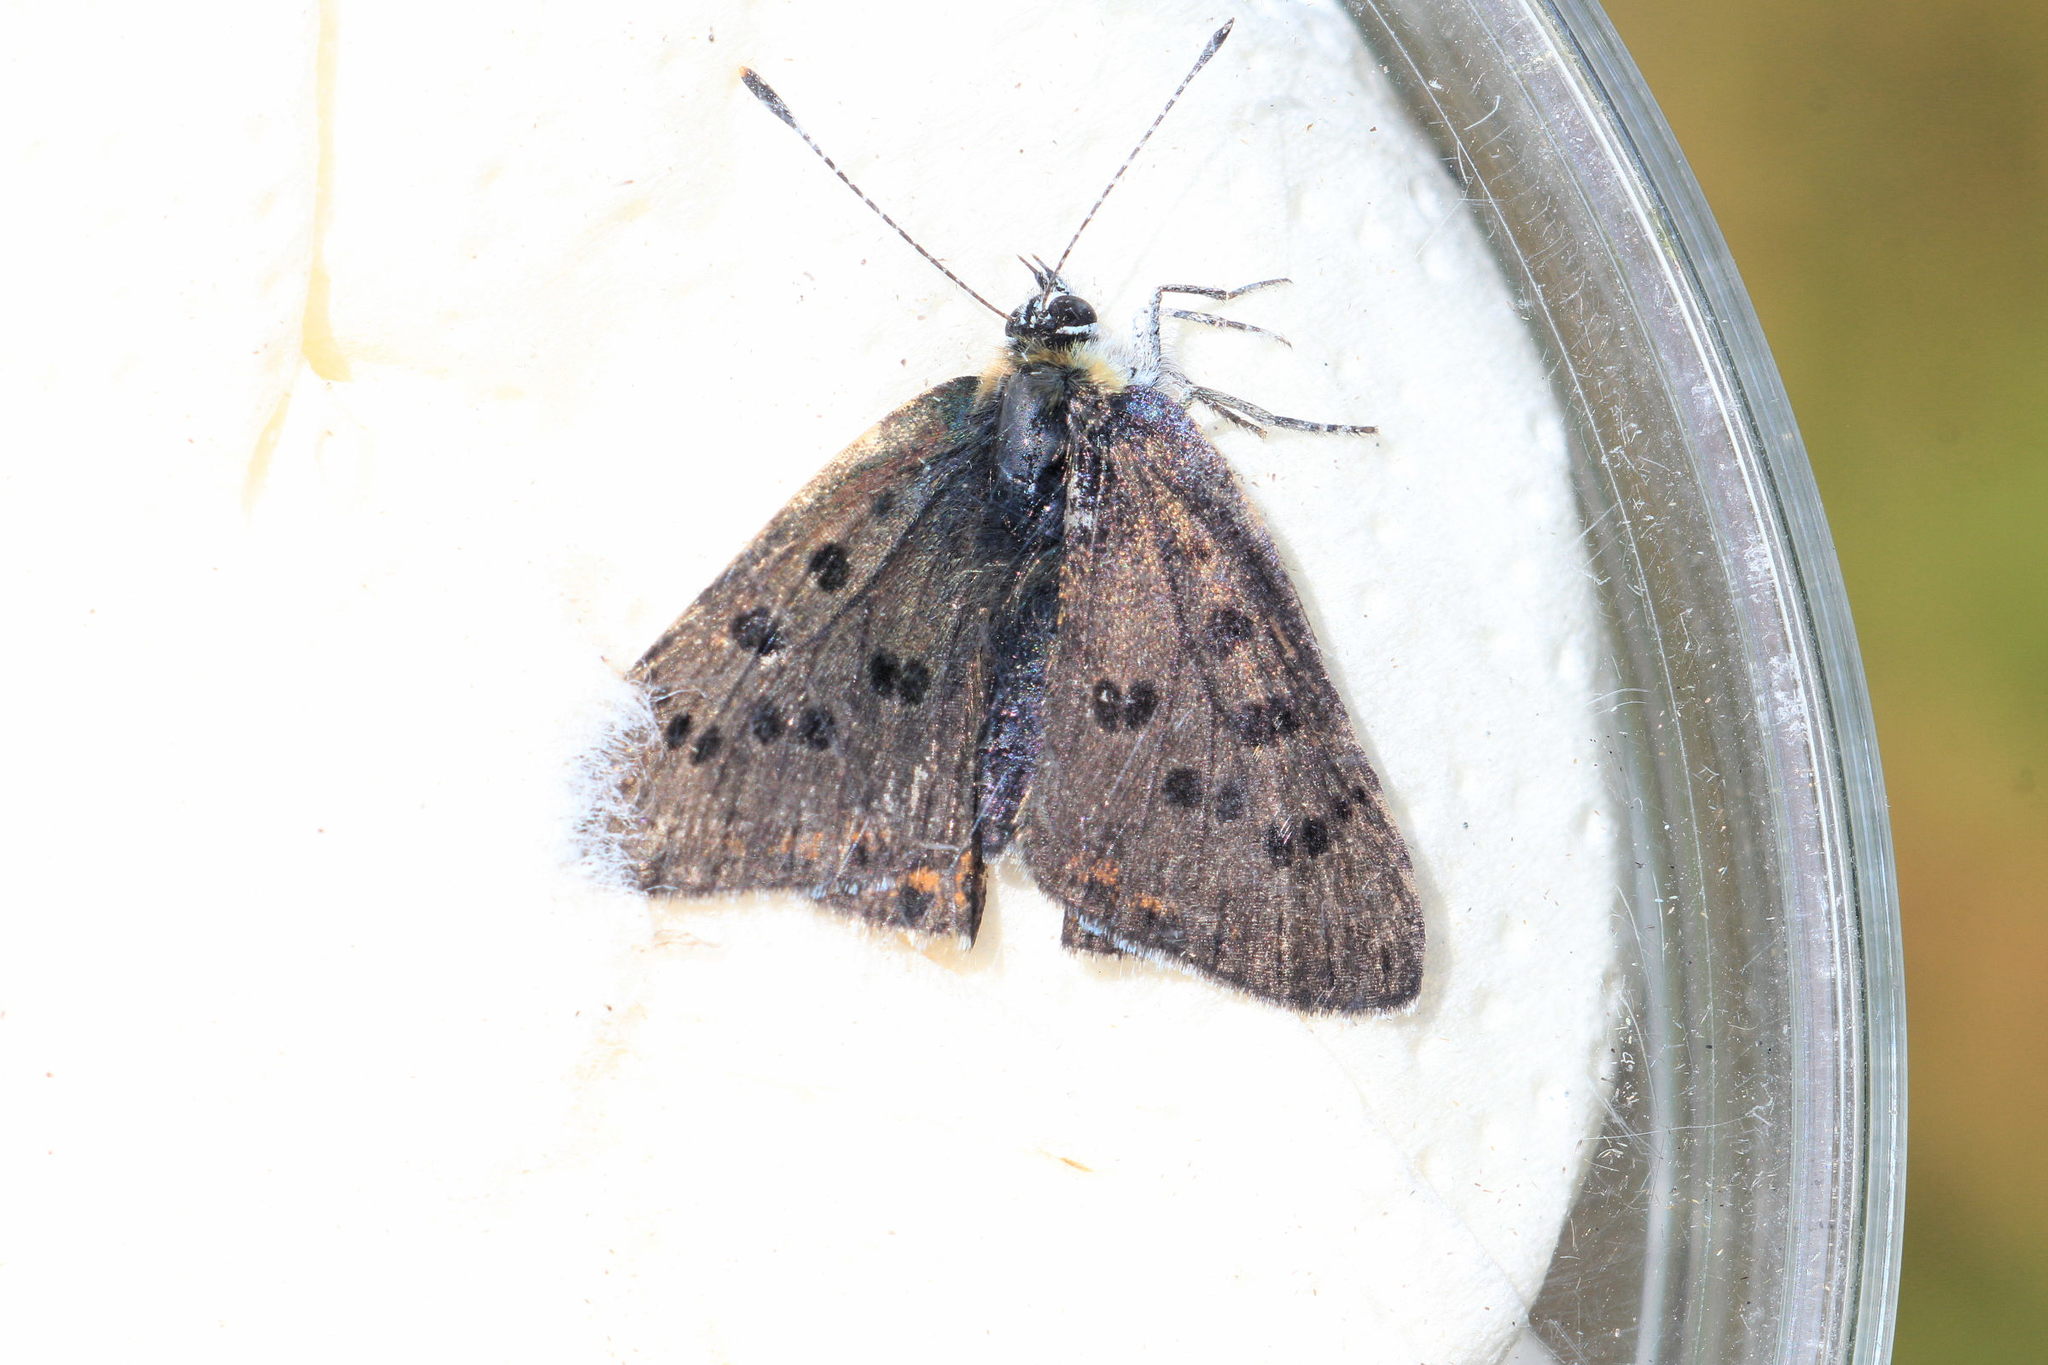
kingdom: Animalia
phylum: Arthropoda
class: Insecta
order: Lepidoptera
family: Lycaenidae
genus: Loweia
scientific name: Loweia tityrus
